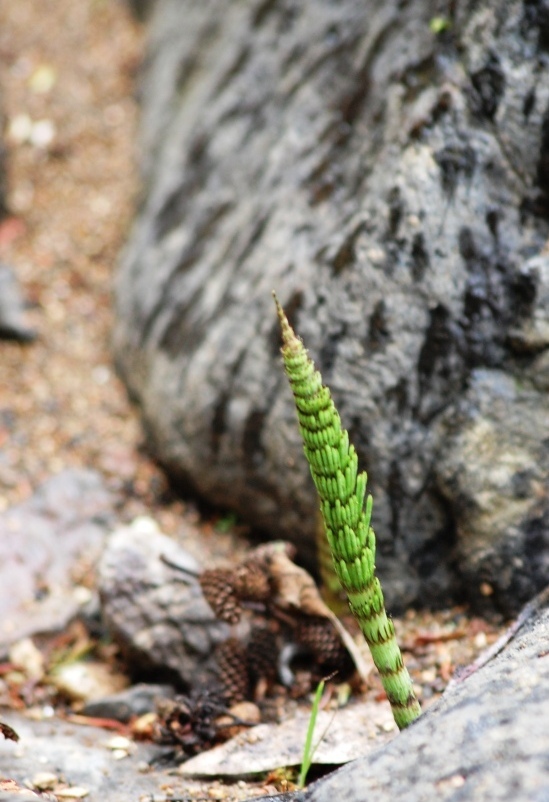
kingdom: Plantae
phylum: Tracheophyta
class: Polypodiopsida
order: Equisetales
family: Equisetaceae
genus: Equisetum
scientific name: Equisetum braunii
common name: Braun's horsetail
